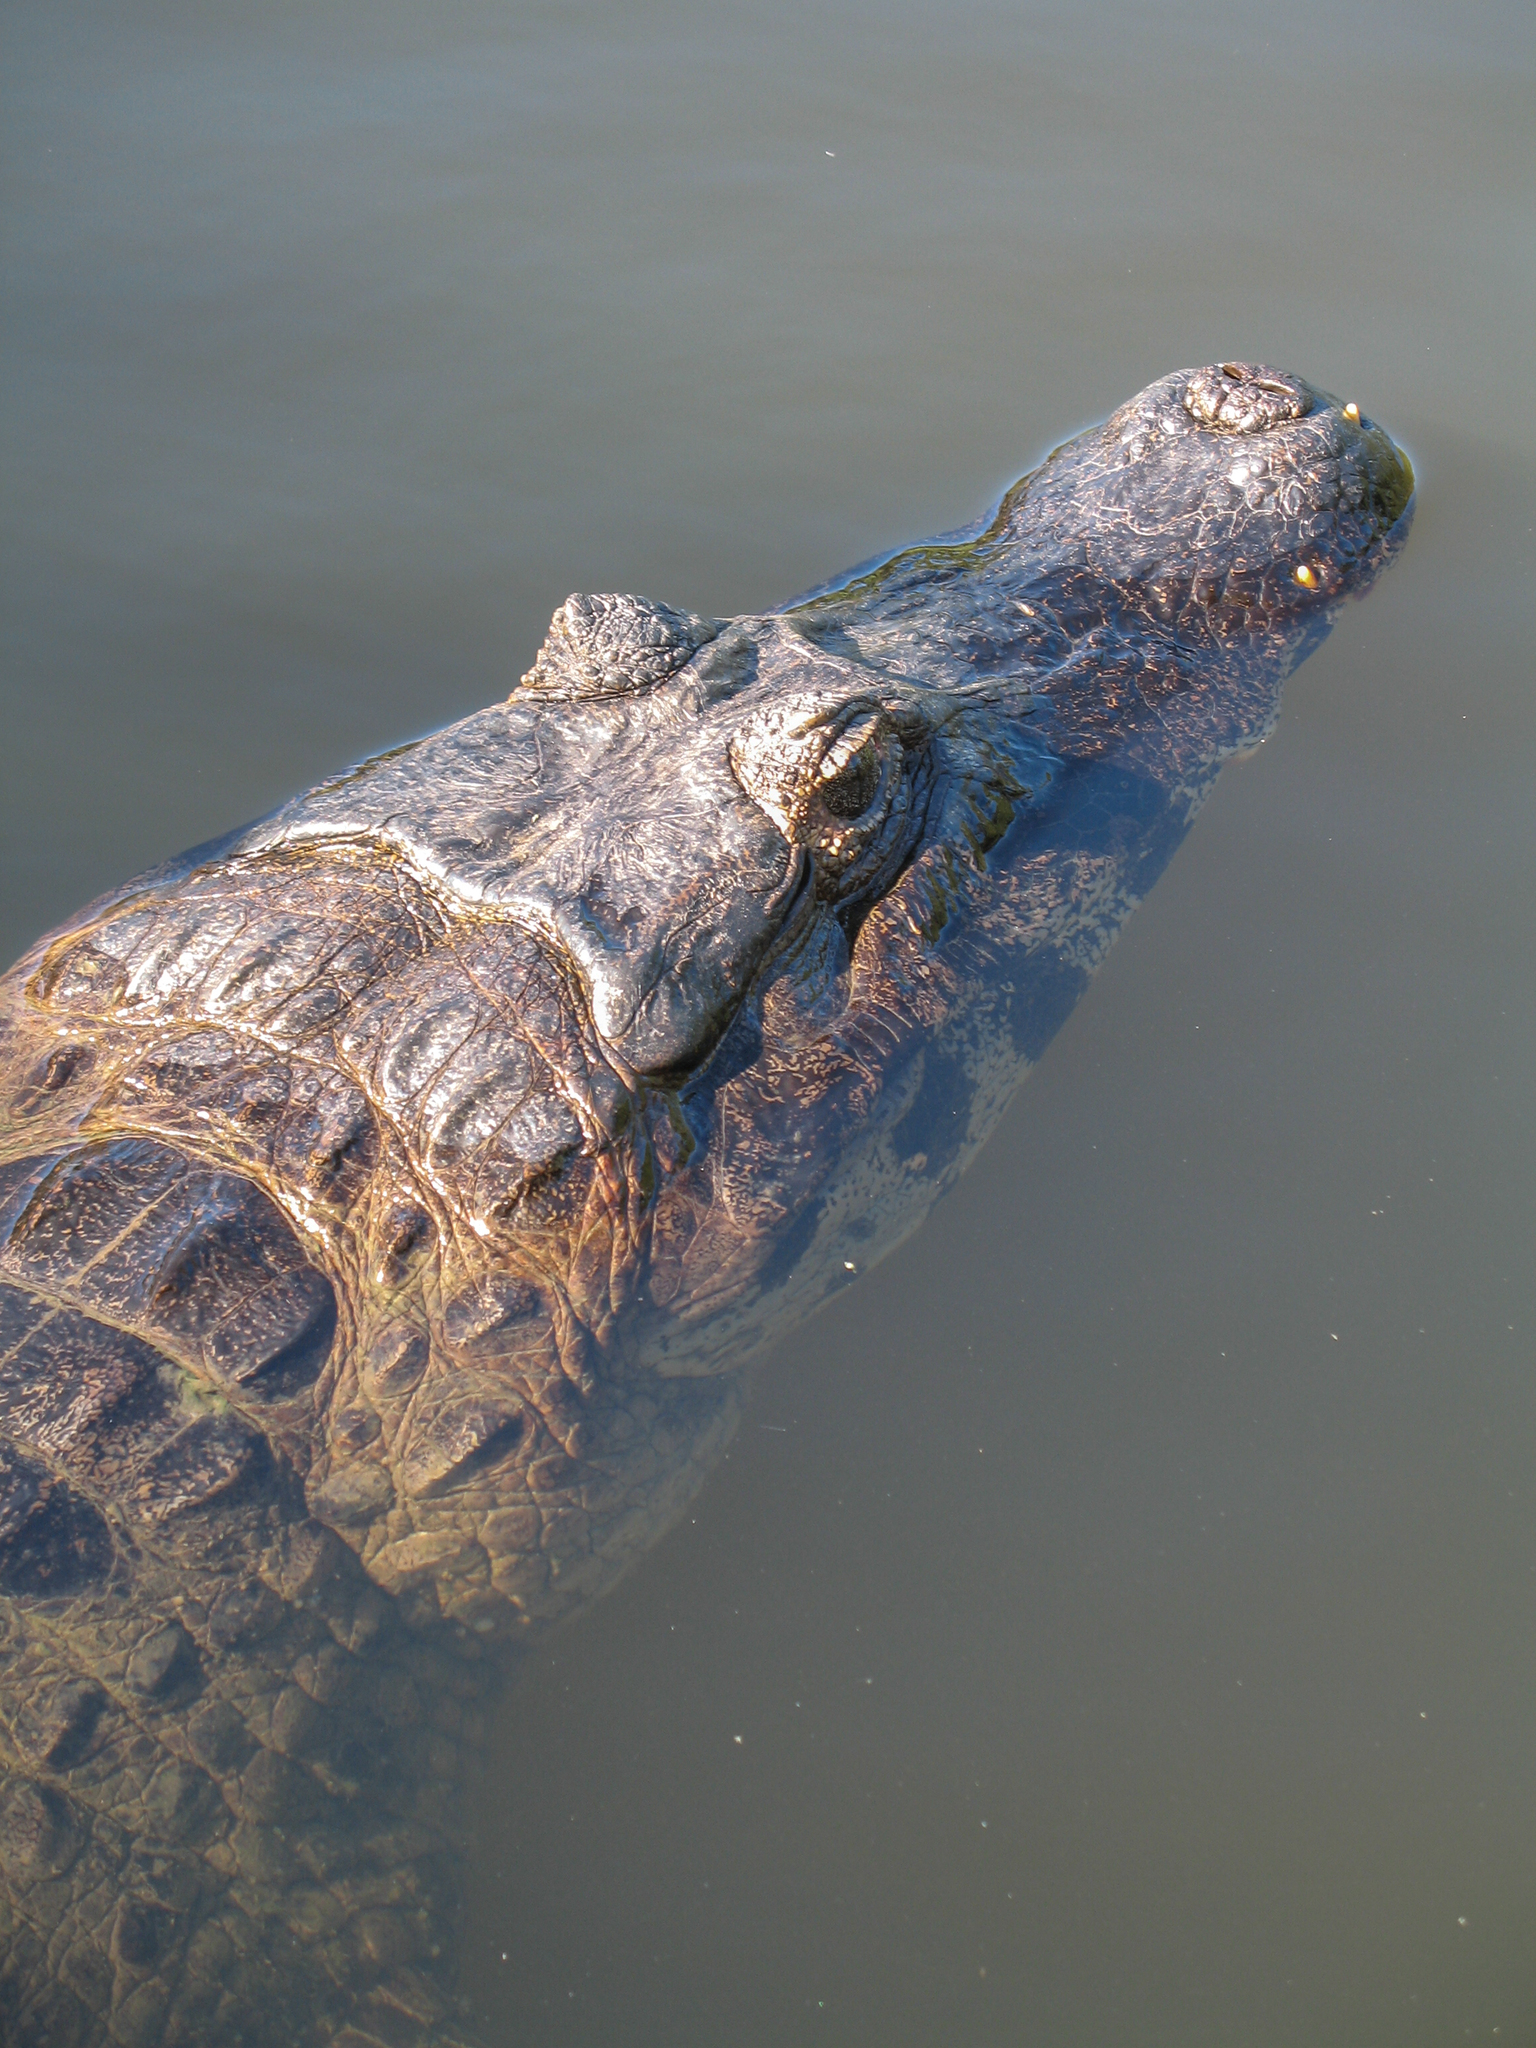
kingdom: Animalia
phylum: Chordata
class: Crocodylia
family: Alligatoridae
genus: Caiman
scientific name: Caiman yacare
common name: Yacare caiman
